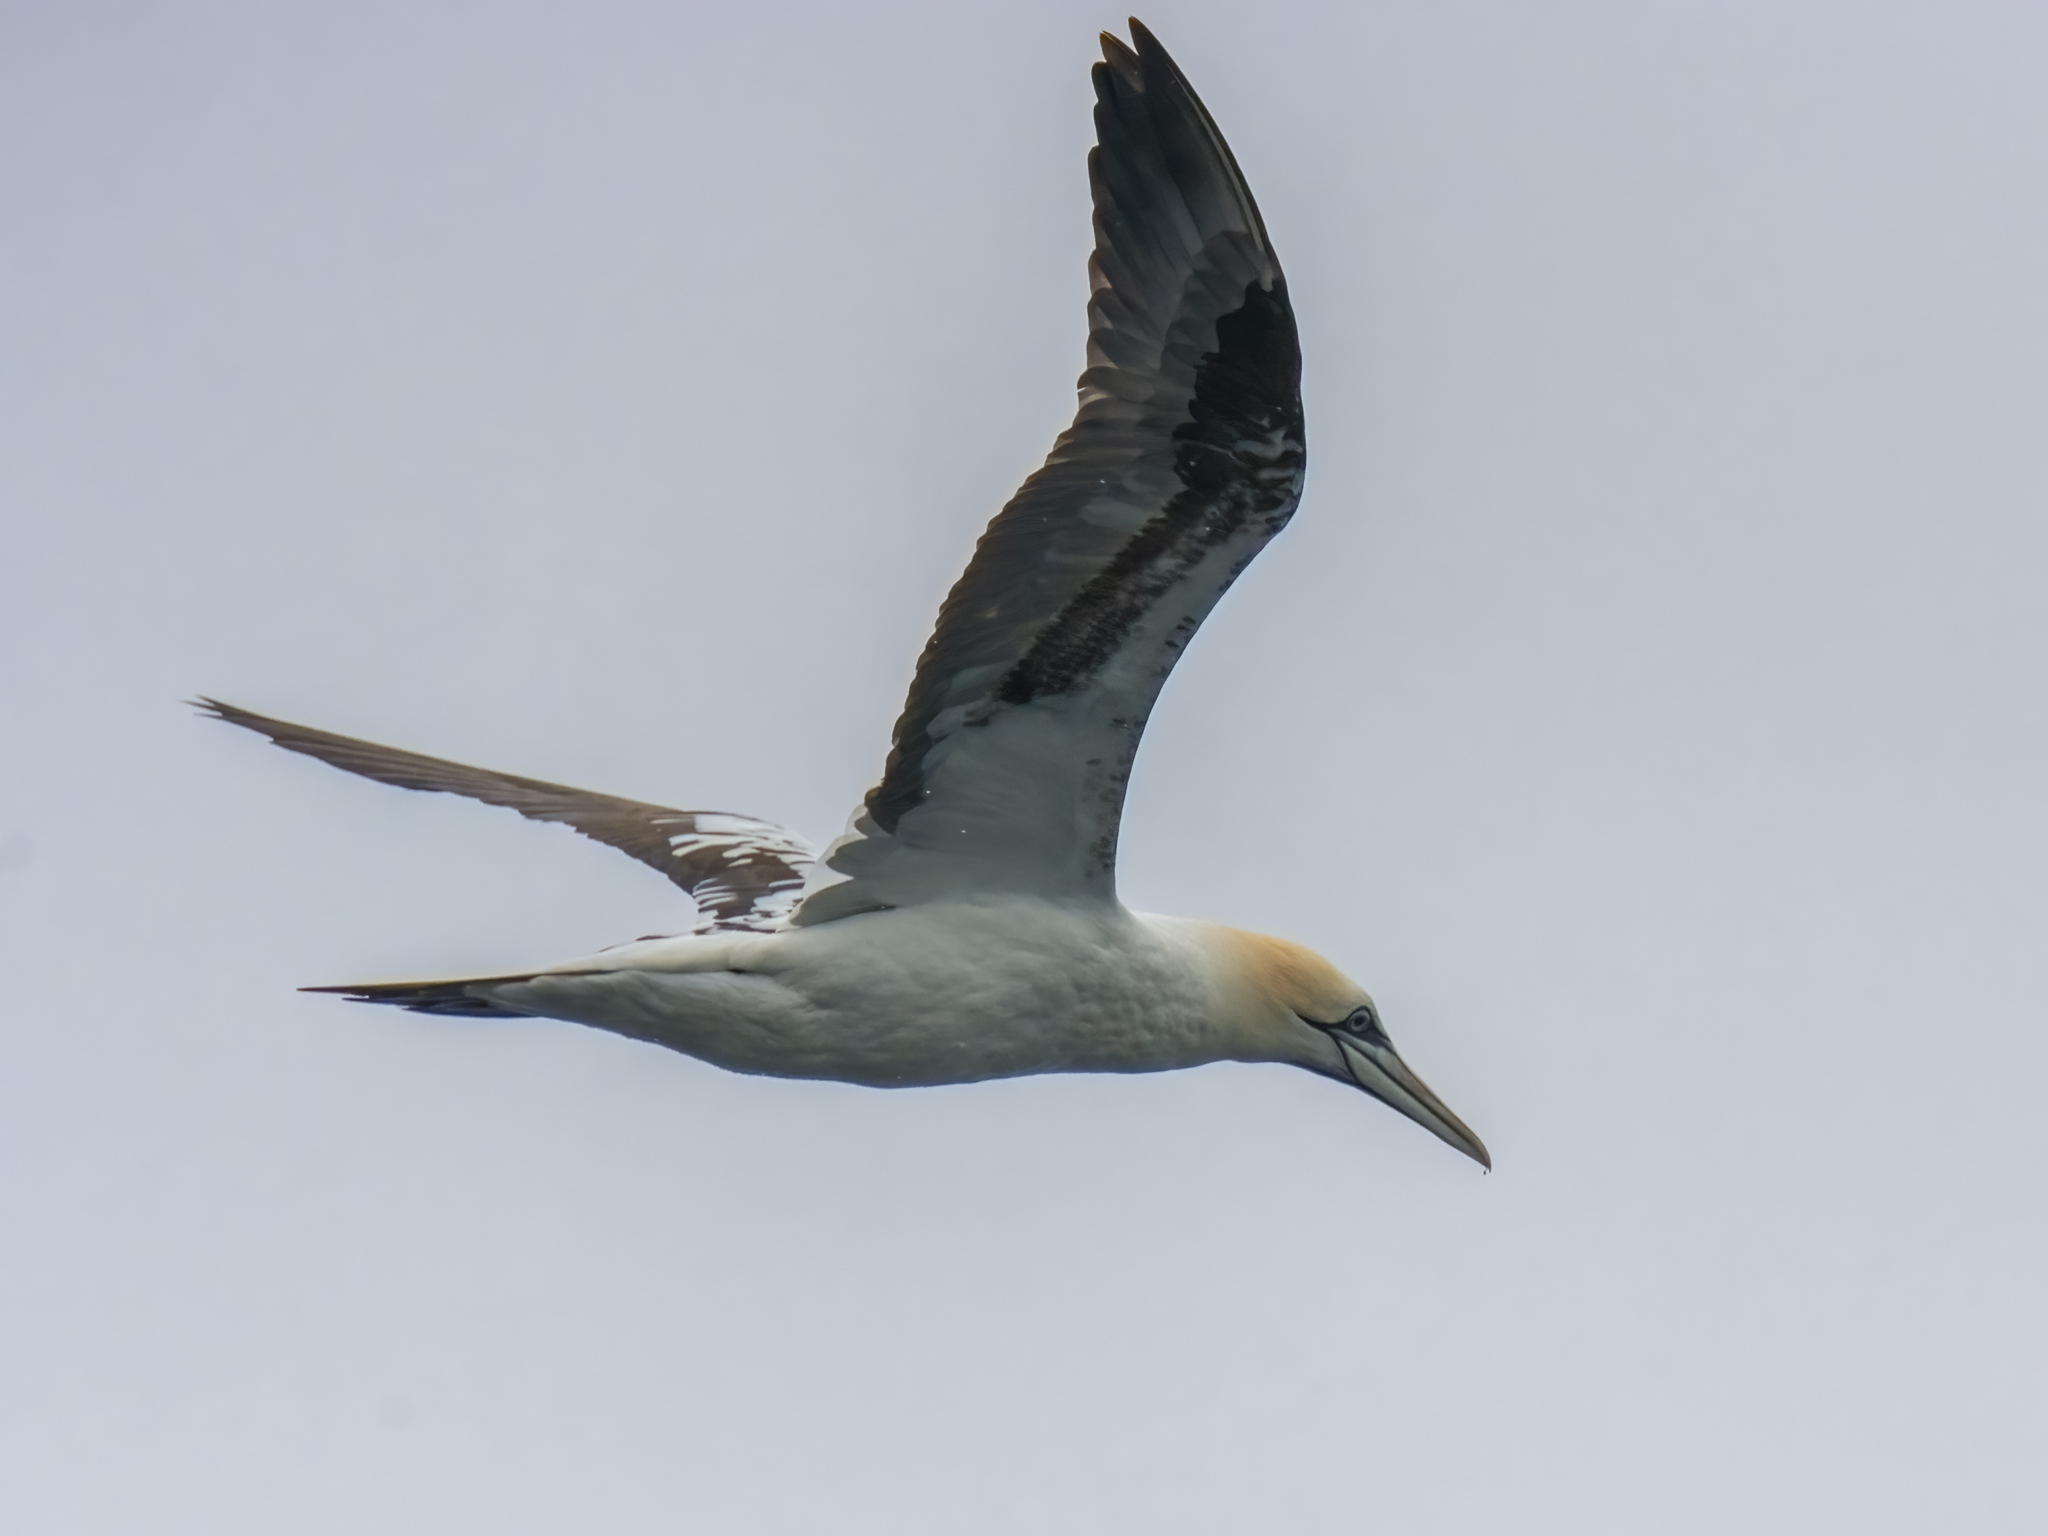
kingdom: Animalia
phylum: Chordata
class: Aves
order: Suliformes
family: Sulidae
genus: Morus
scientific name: Morus bassanus
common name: Northern gannet
